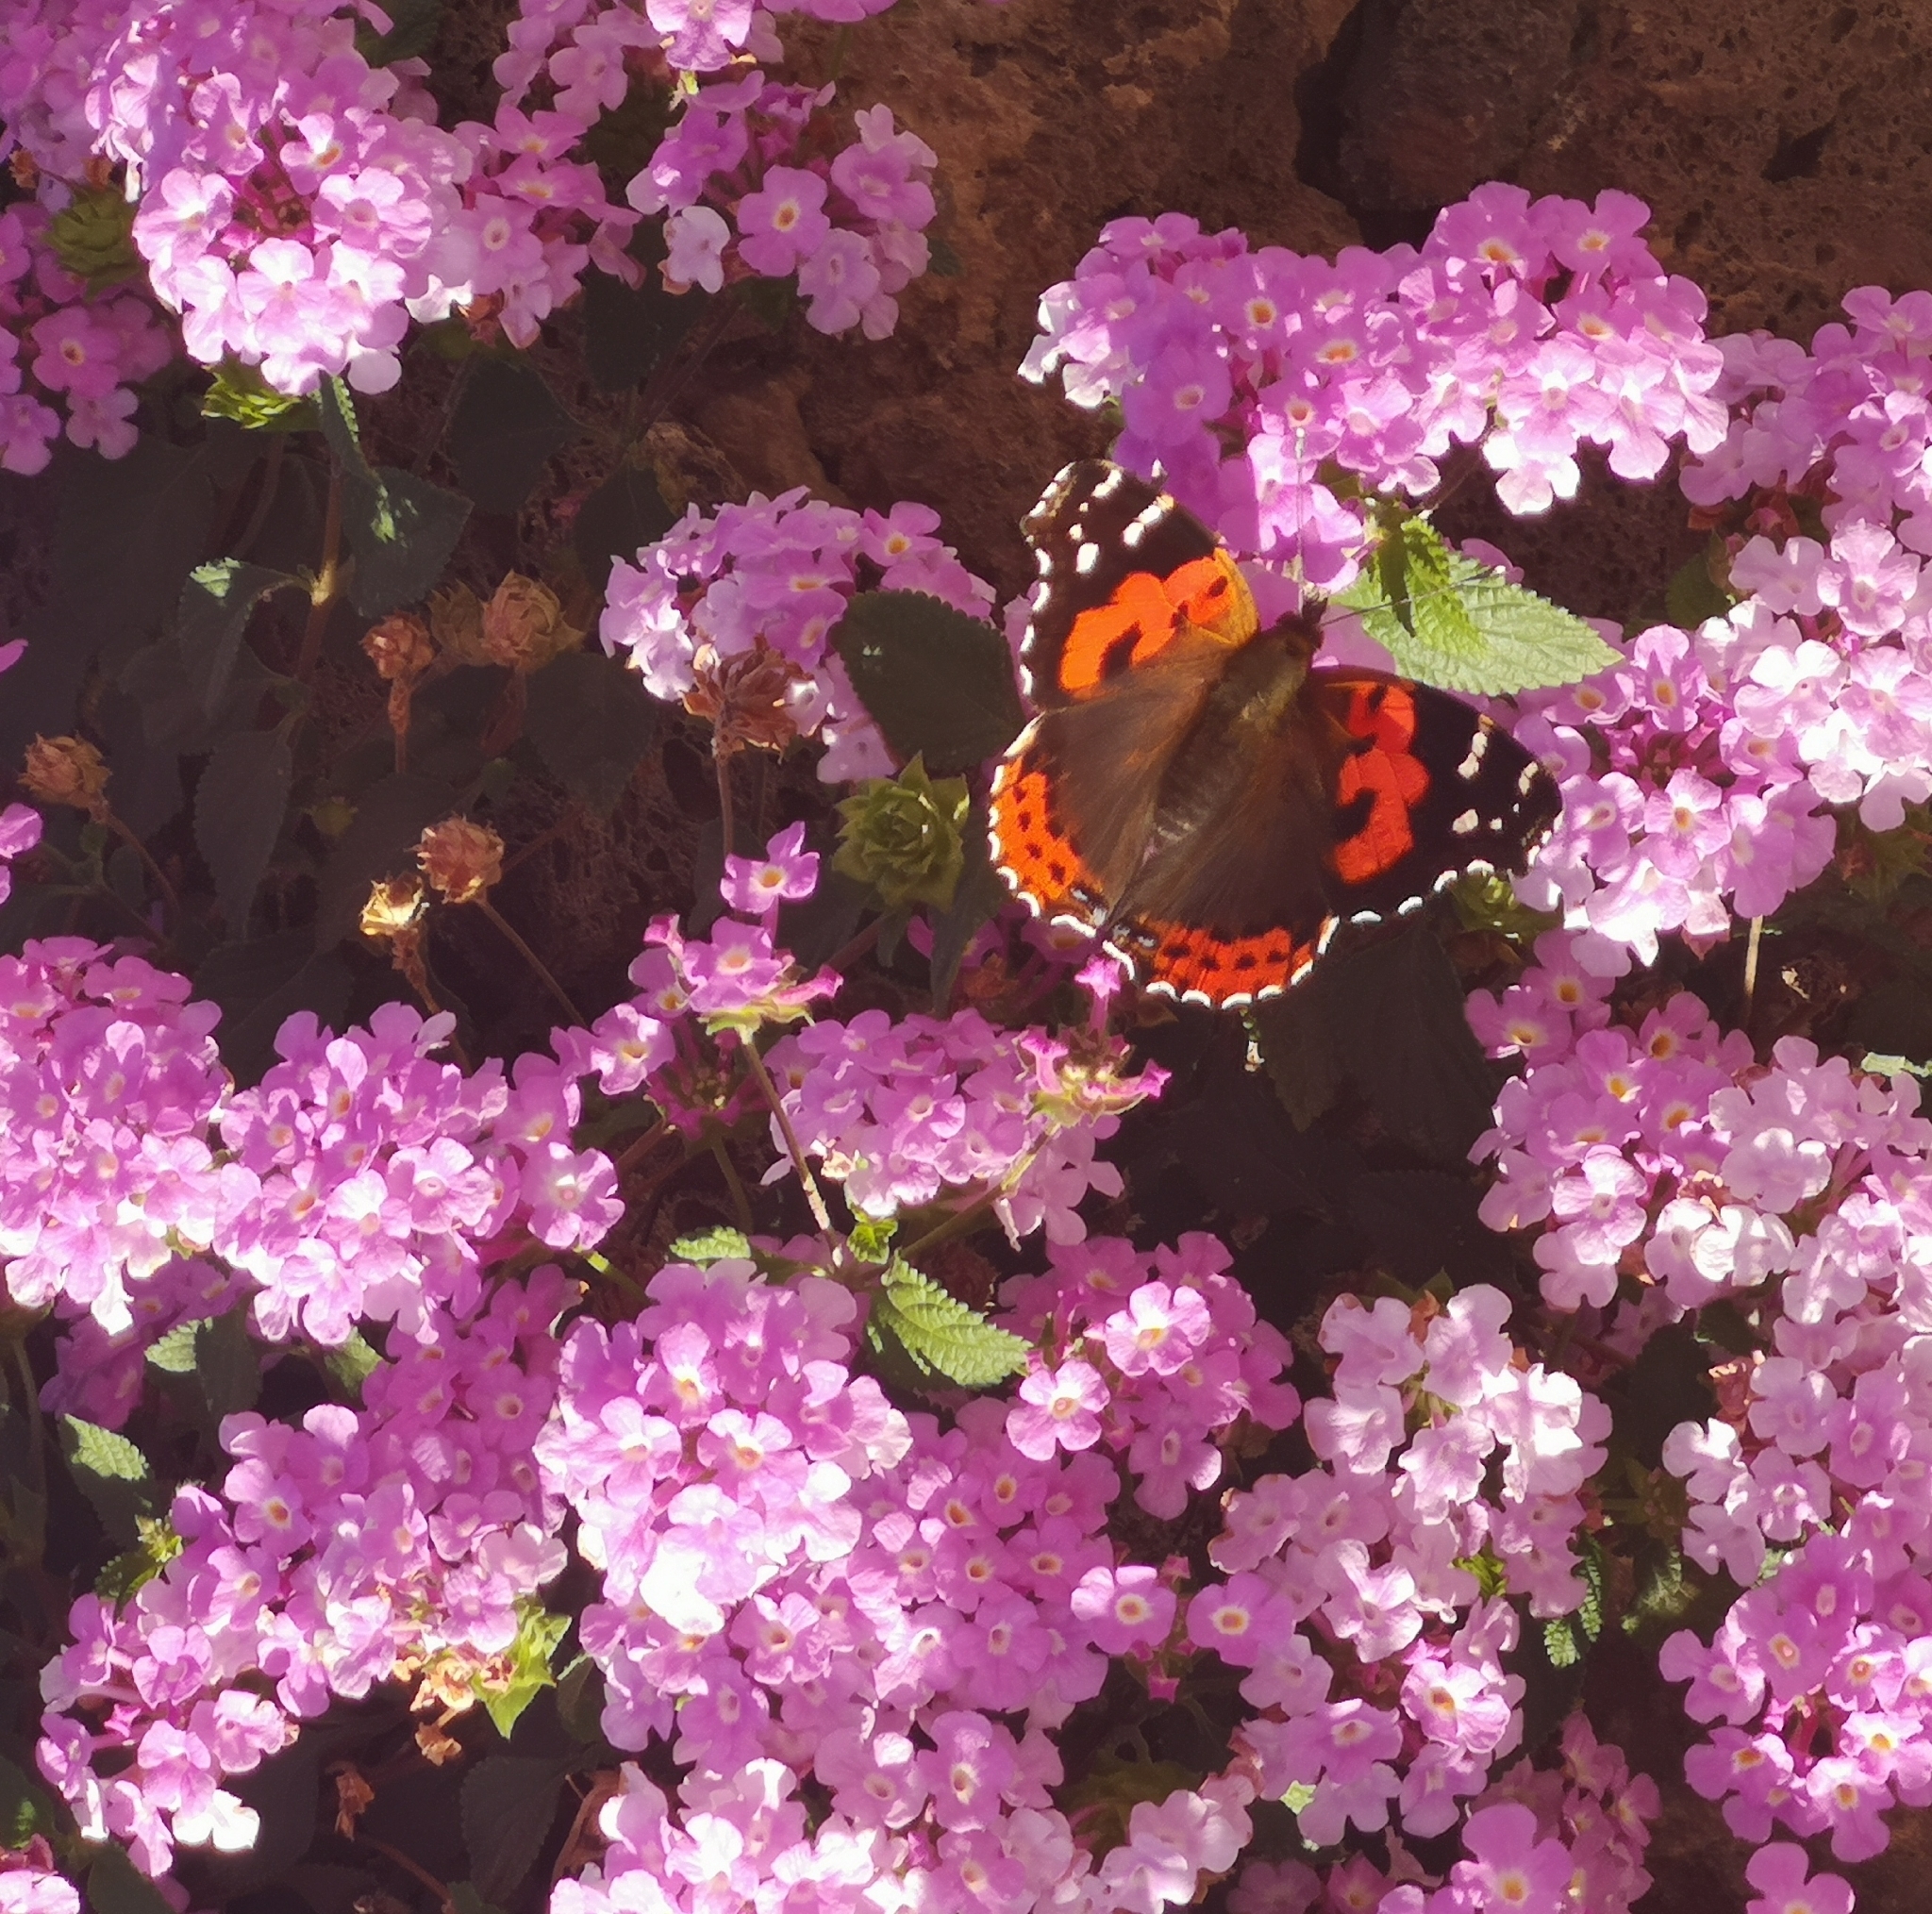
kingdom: Animalia
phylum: Arthropoda
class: Insecta
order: Lepidoptera
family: Nymphalidae
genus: Vanessa
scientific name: Vanessa vulcania
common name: Canary red admiral
